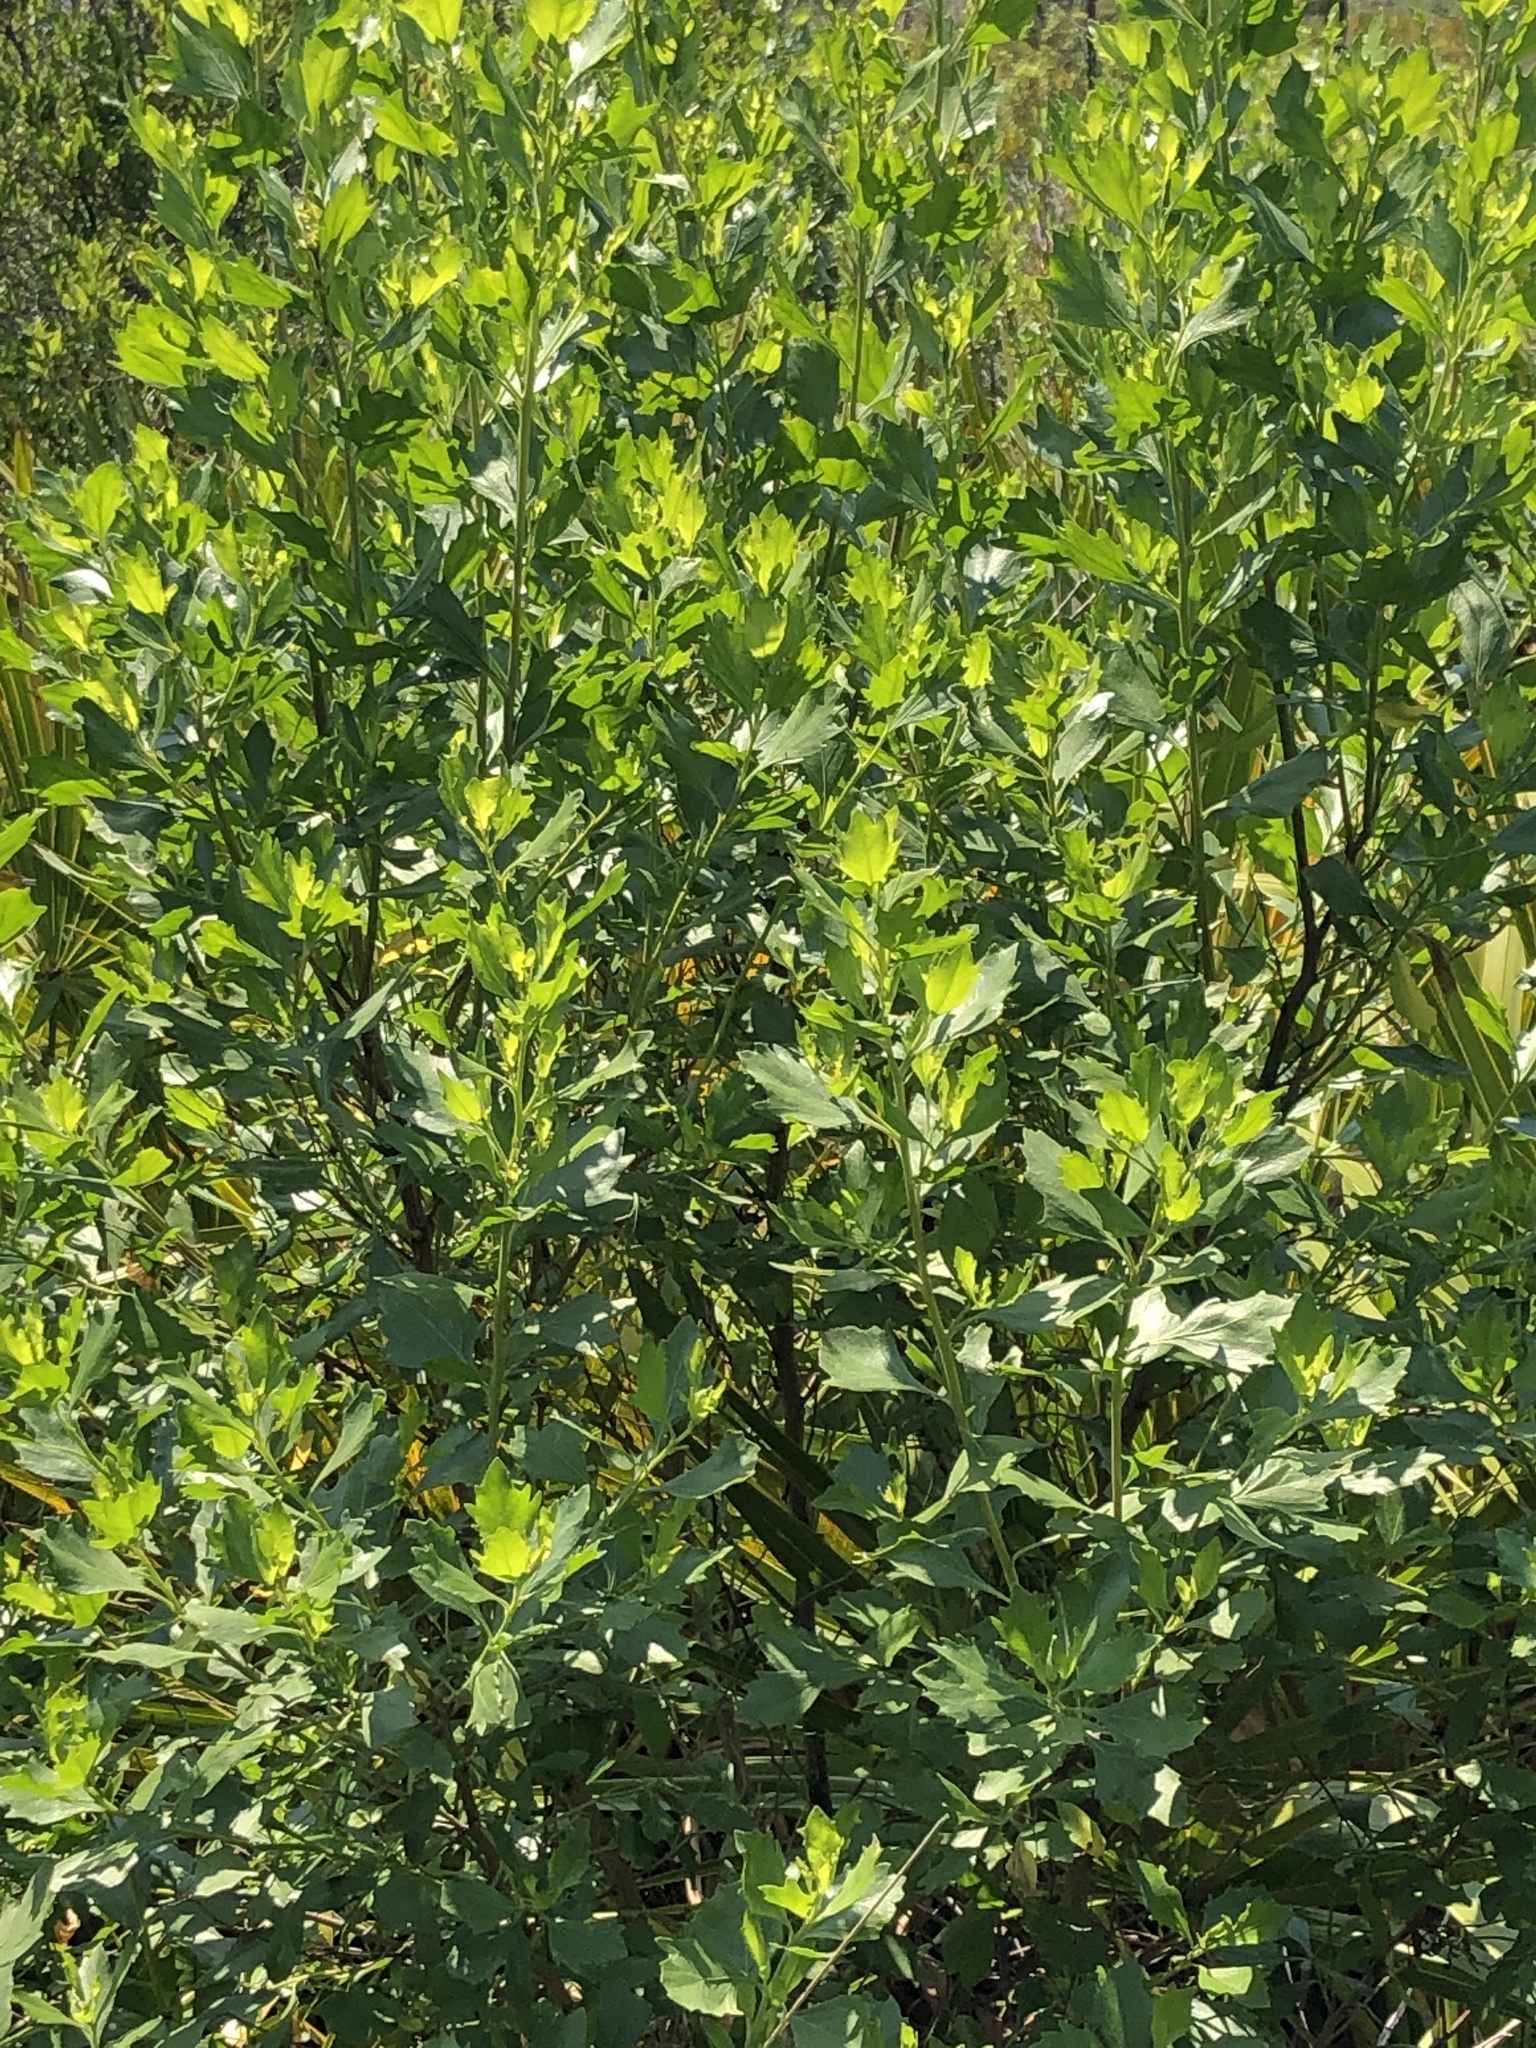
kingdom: Plantae
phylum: Tracheophyta
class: Magnoliopsida
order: Asterales
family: Asteraceae
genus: Baccharis
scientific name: Baccharis halimifolia
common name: Eastern baccharis
